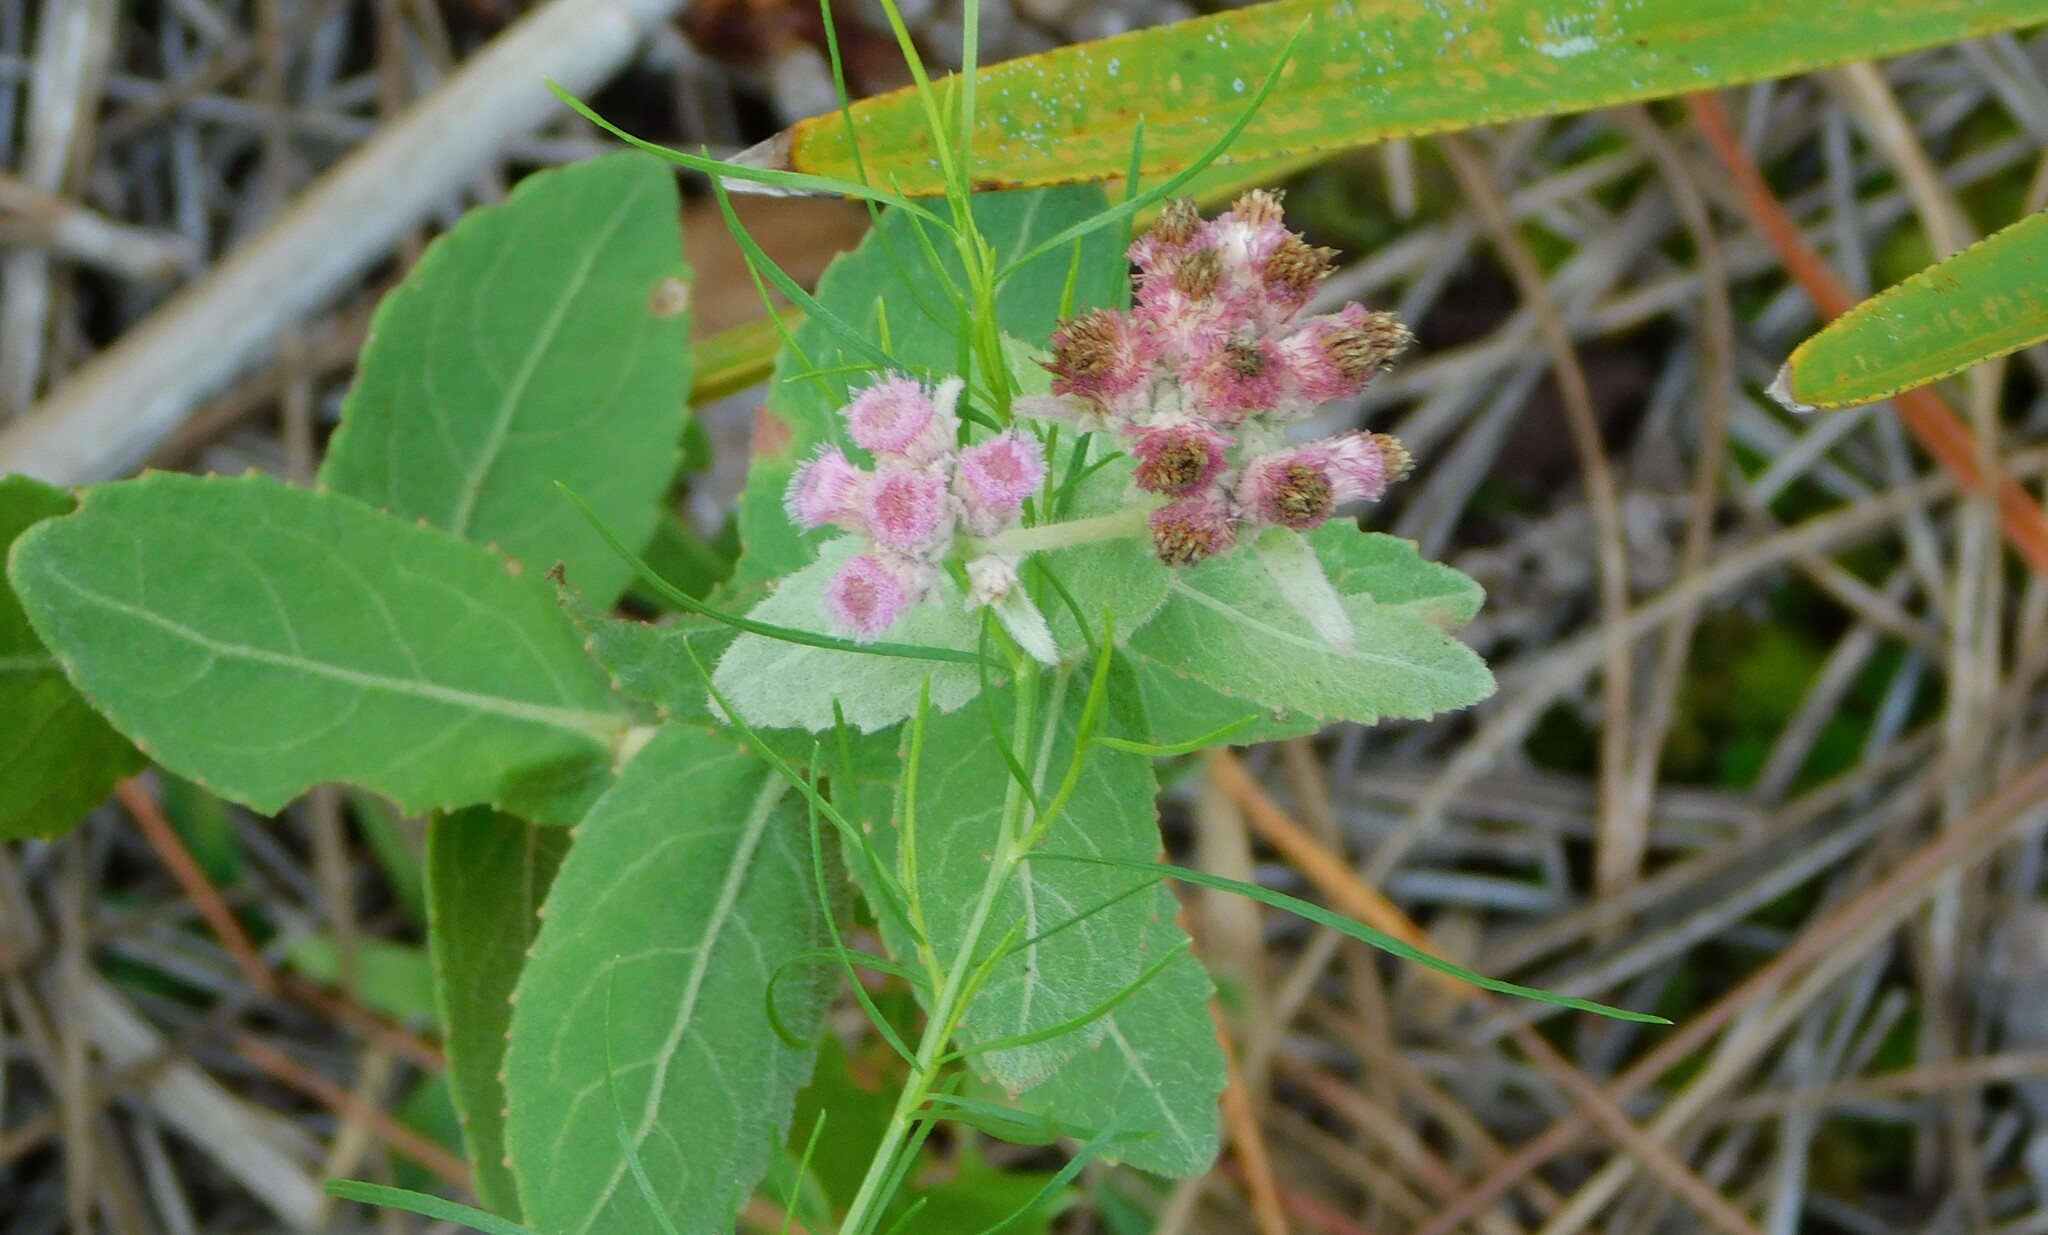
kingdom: Plantae
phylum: Tracheophyta
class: Magnoliopsida
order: Asterales
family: Asteraceae
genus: Pluchea
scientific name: Pluchea baccharis
